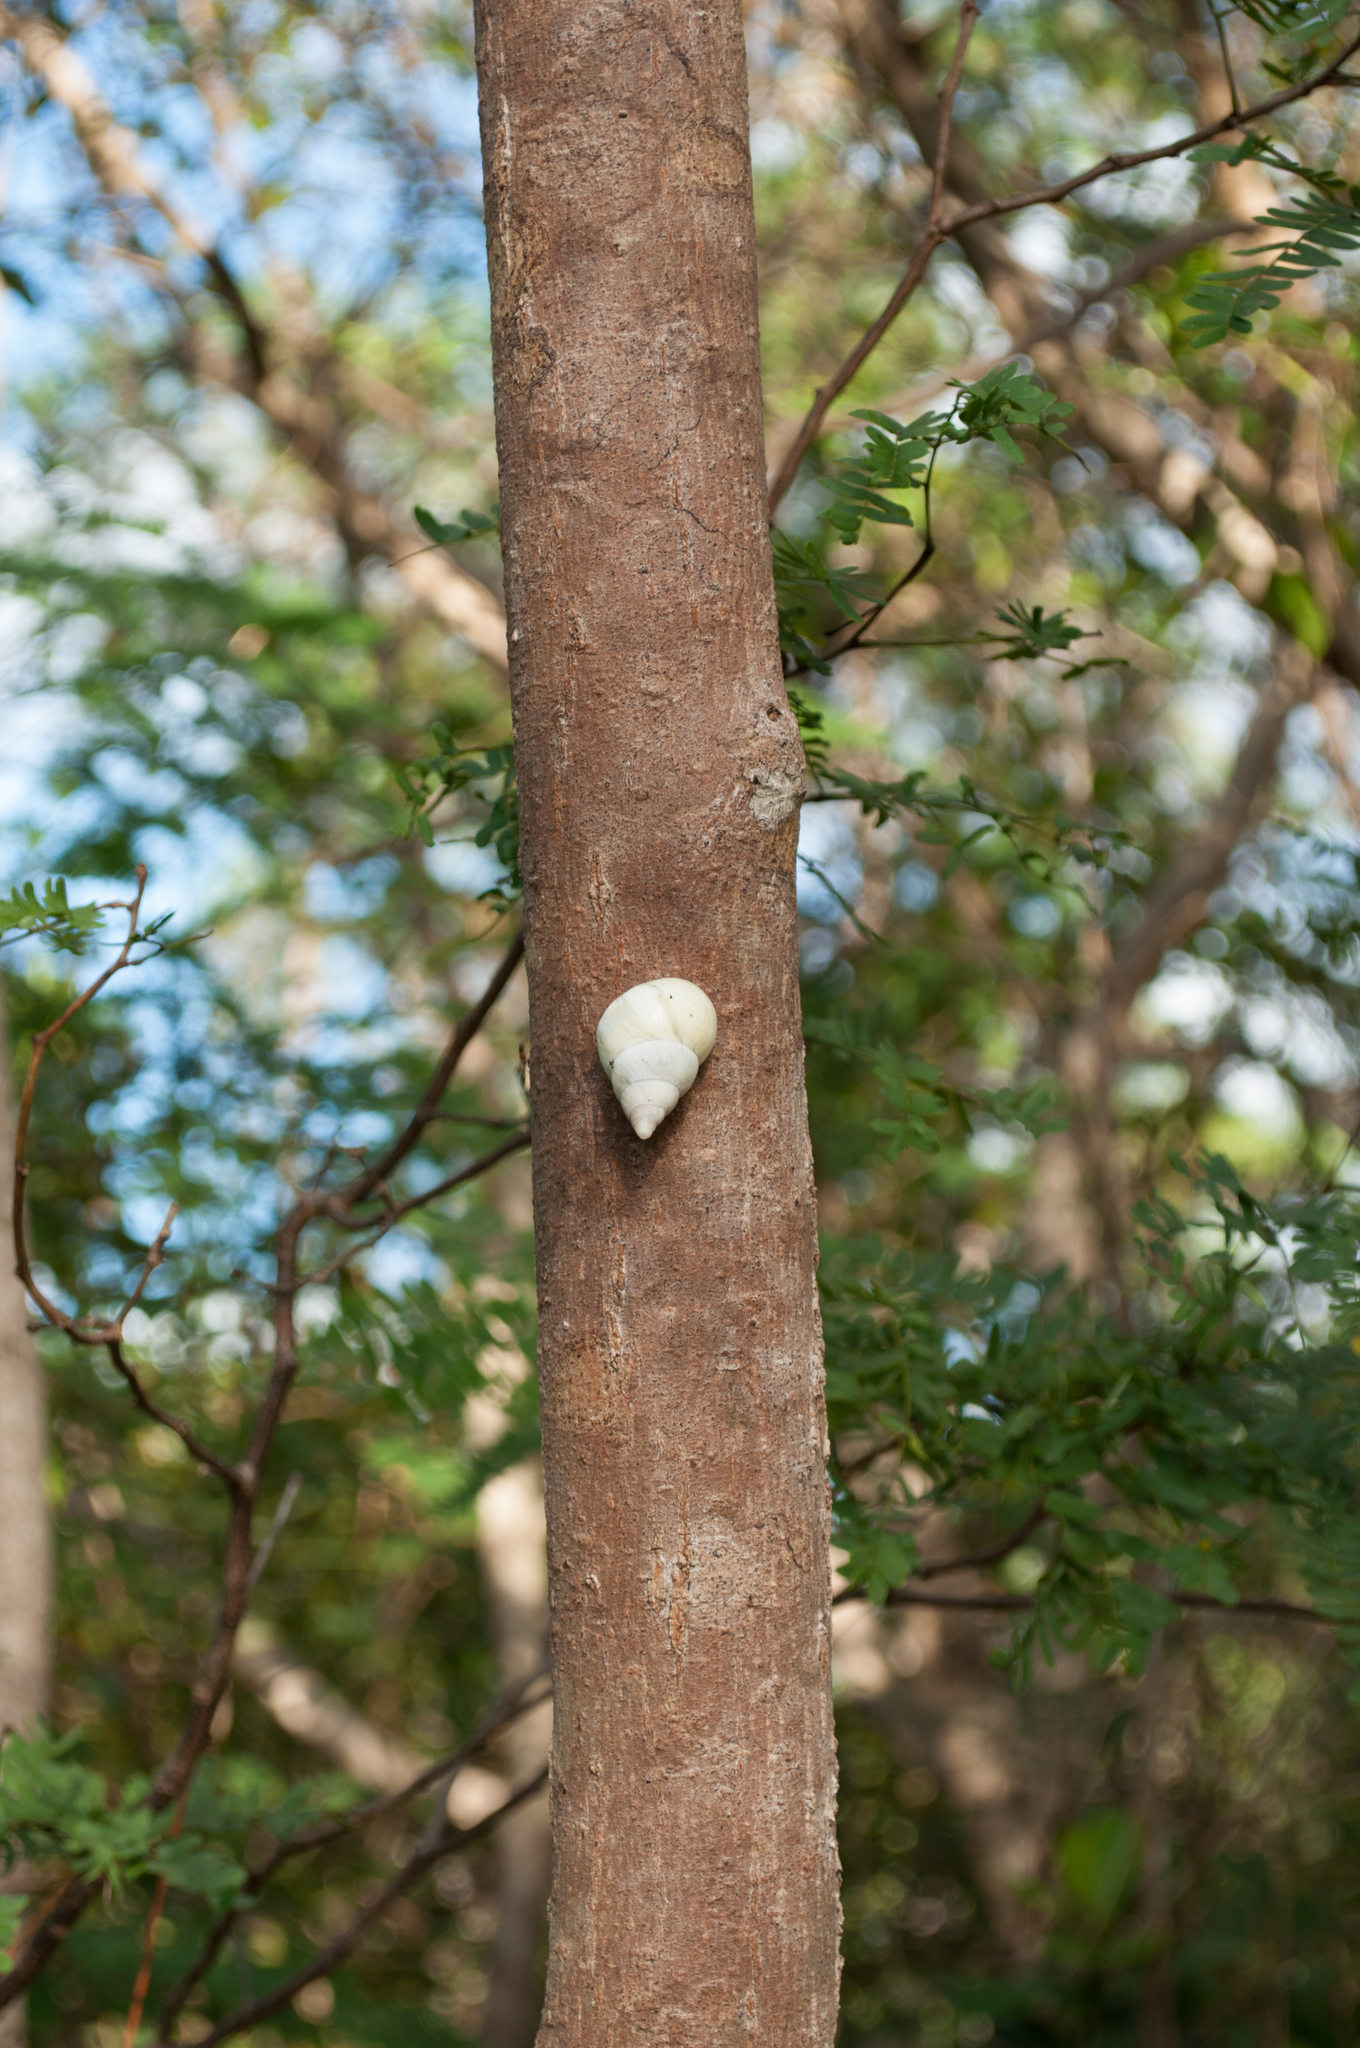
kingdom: Animalia
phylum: Mollusca
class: Gastropoda
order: Stylommatophora
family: Orthalicidae
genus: Liguus
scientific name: Liguus fasciatus
